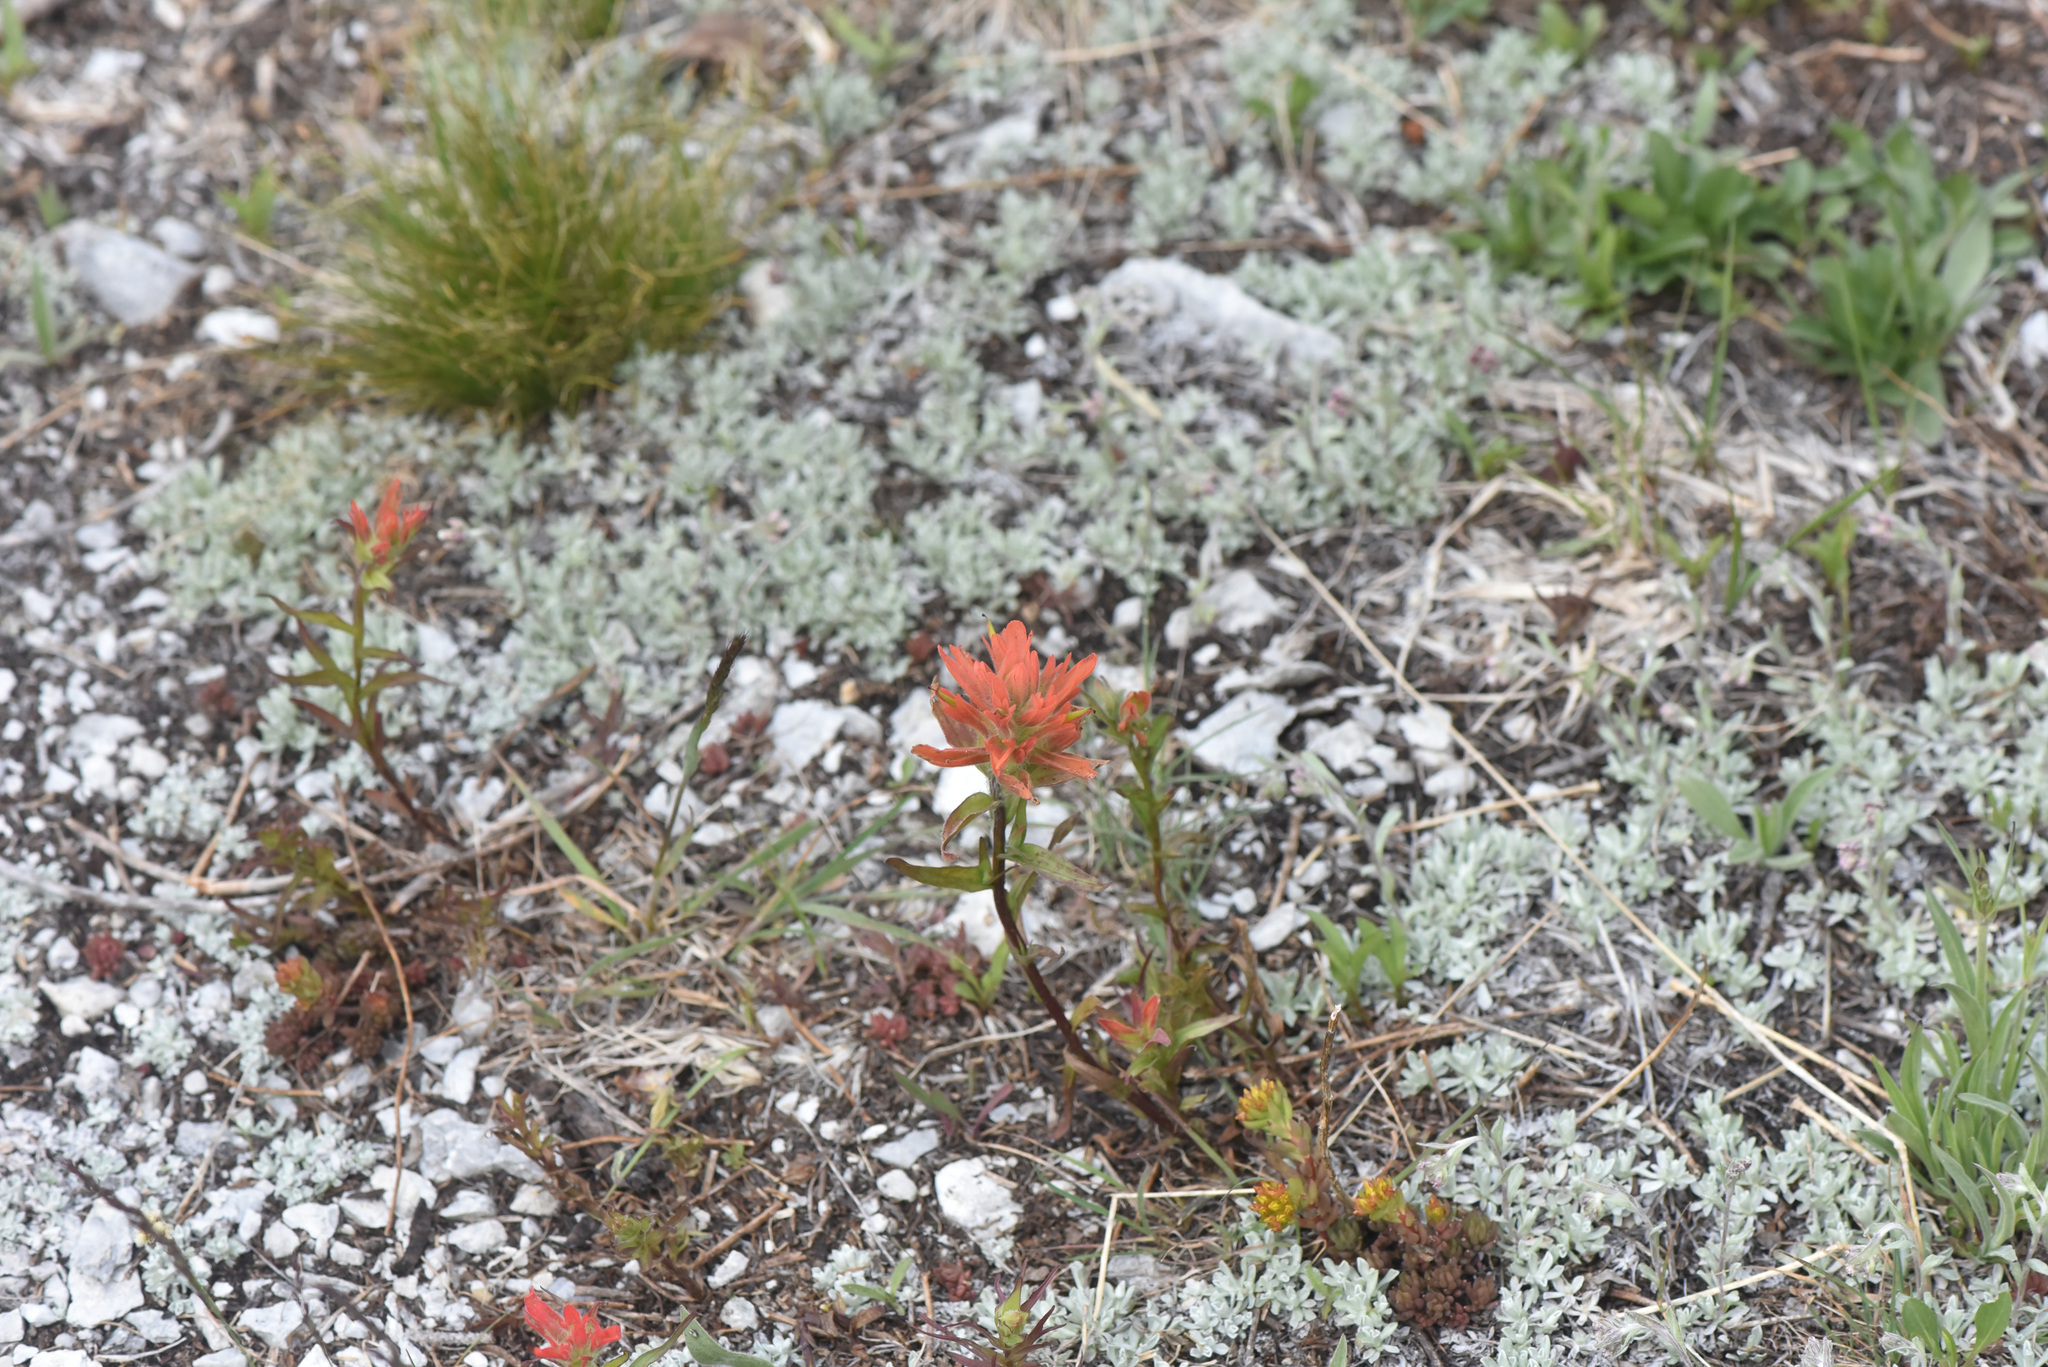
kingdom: Plantae
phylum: Tracheophyta
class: Magnoliopsida
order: Lamiales
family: Orobanchaceae
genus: Castilleja
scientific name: Castilleja miniata
